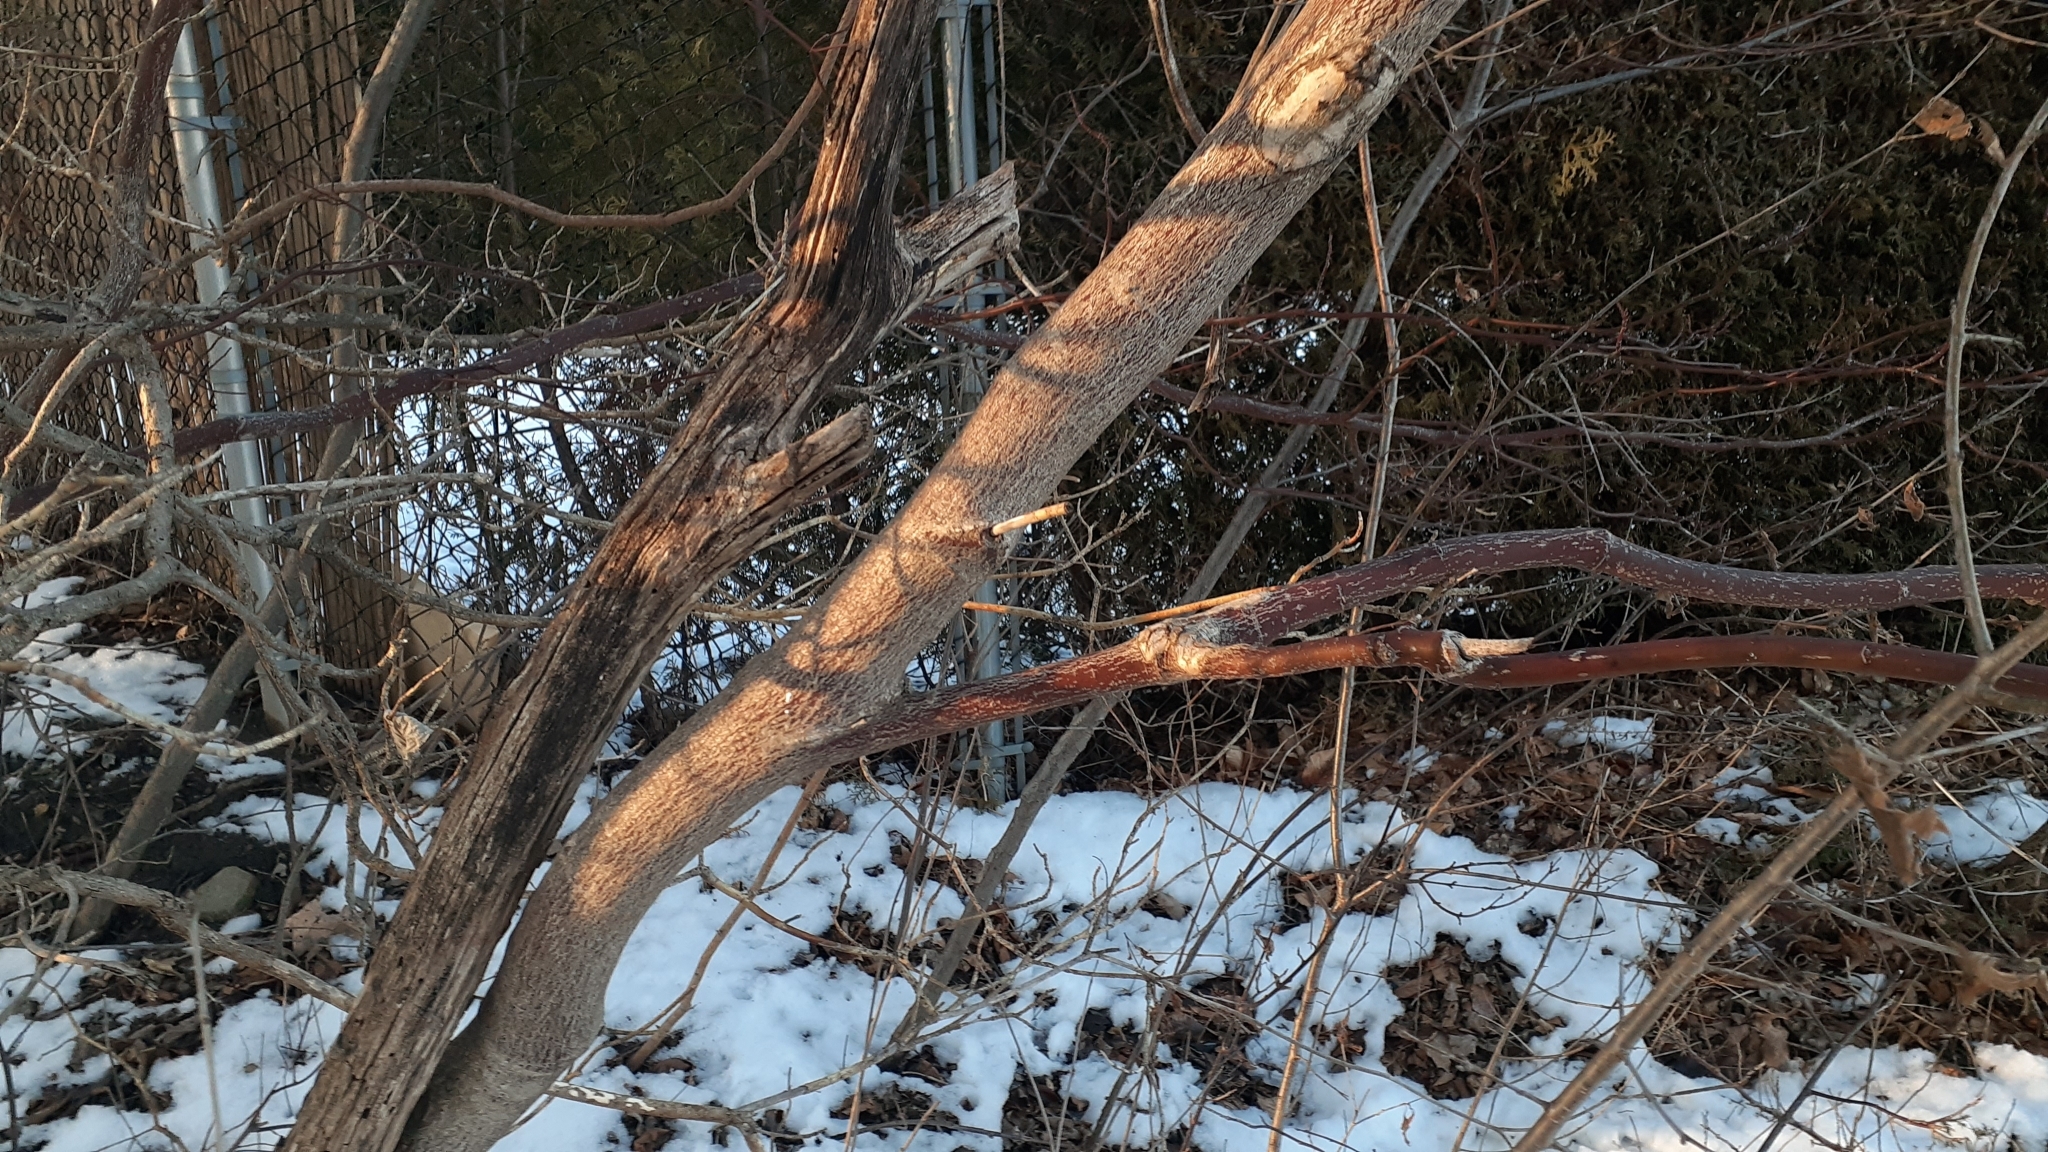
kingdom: Plantae
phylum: Tracheophyta
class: Magnoliopsida
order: Cornales
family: Cornaceae
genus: Cornus
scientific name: Cornus alternifolia
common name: Pagoda dogwood
